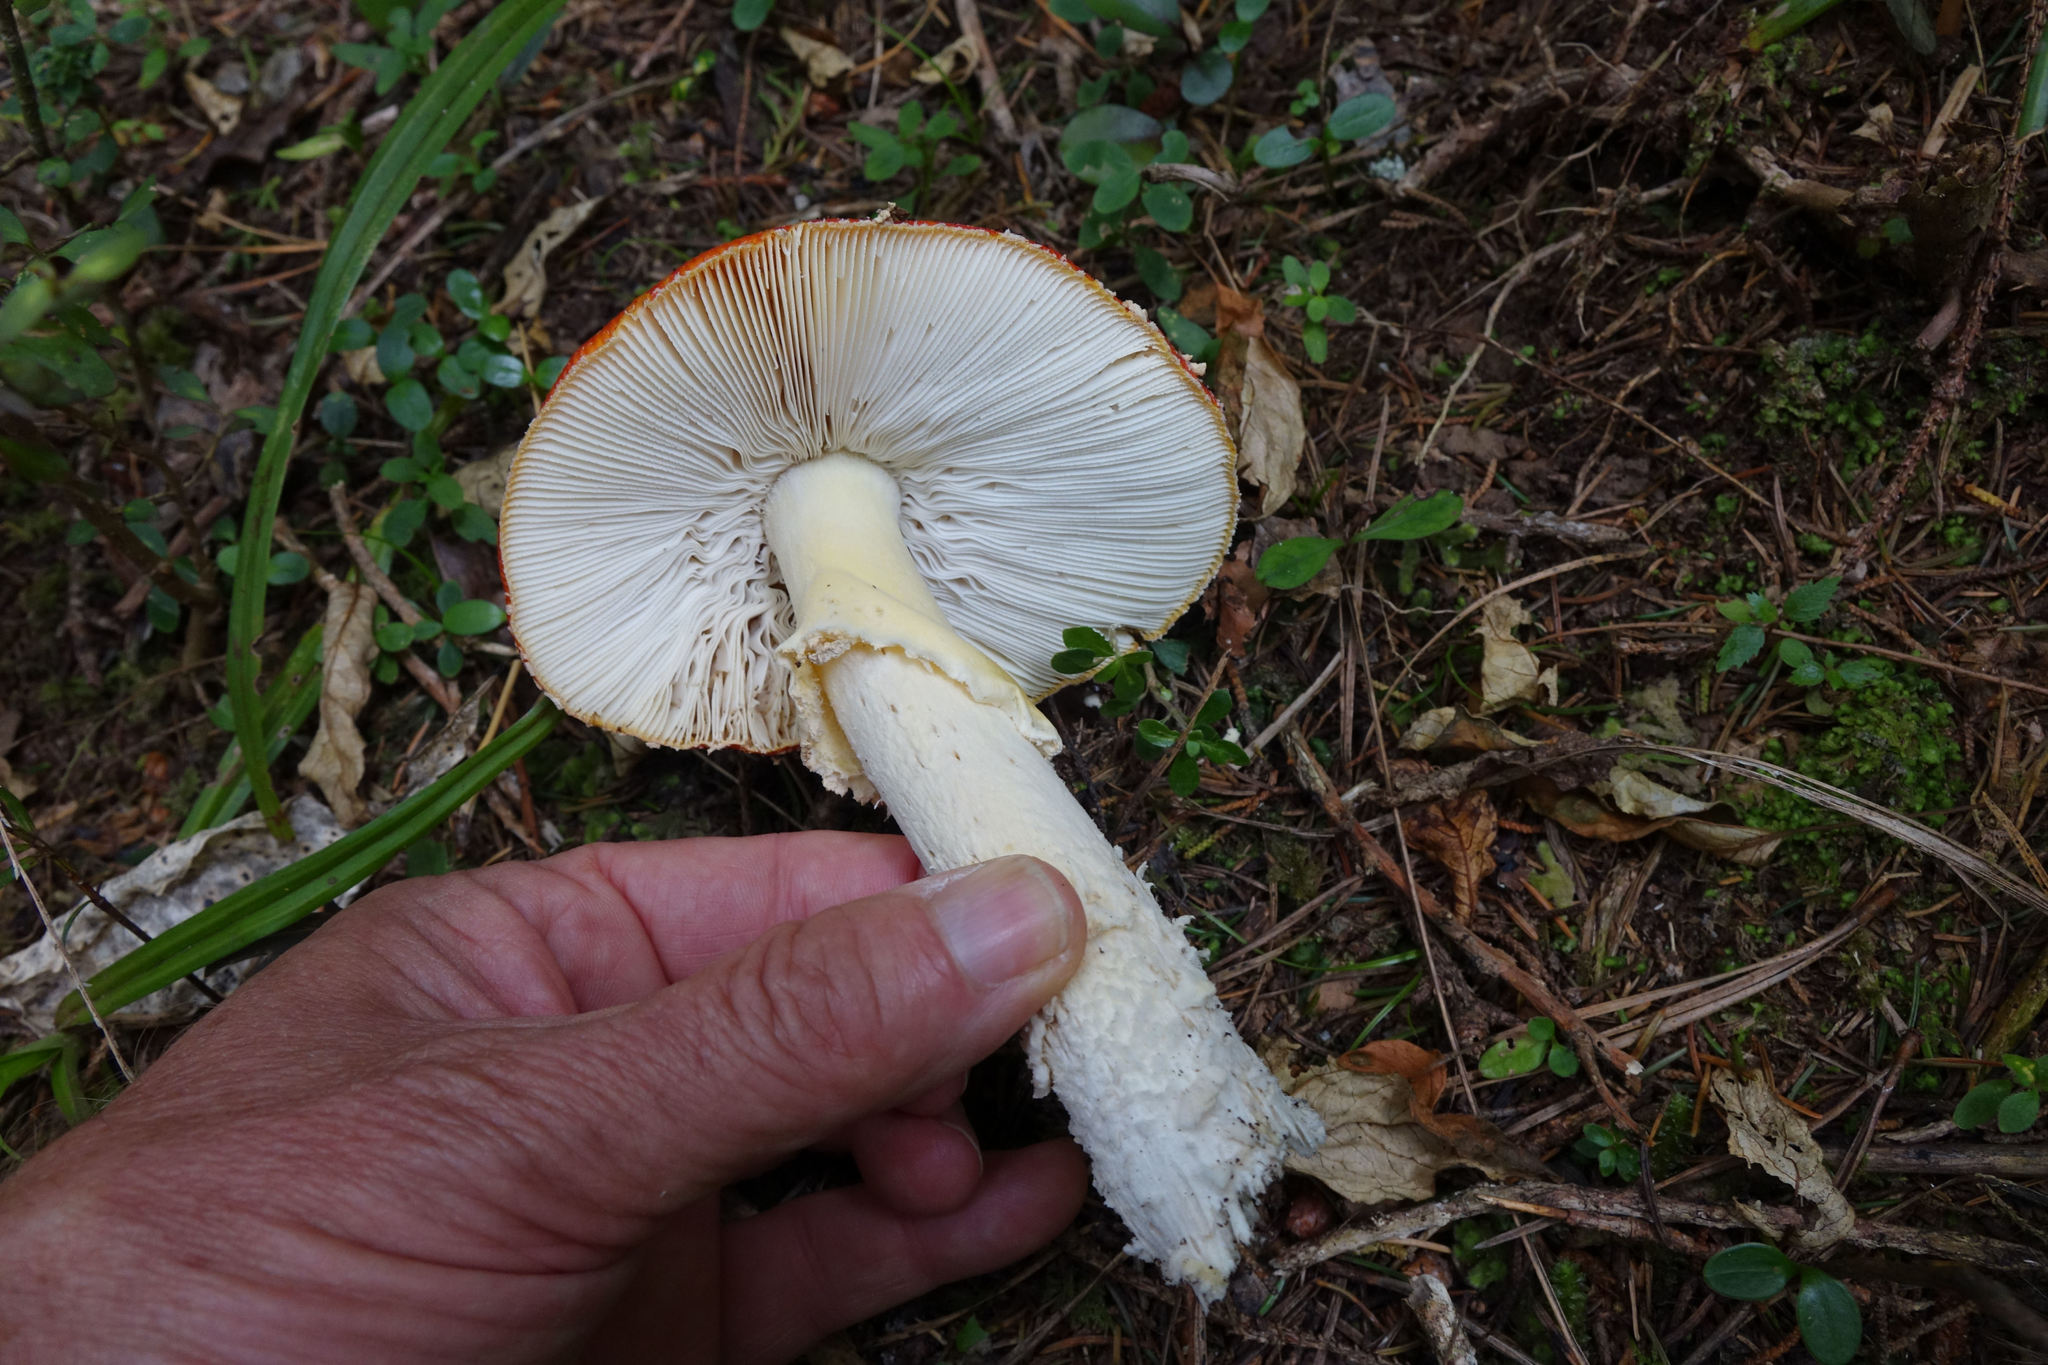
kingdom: Fungi
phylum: Basidiomycota
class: Agaricomycetes
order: Agaricales
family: Amanitaceae
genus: Amanita
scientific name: Amanita muscaria
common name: Fly agaric
